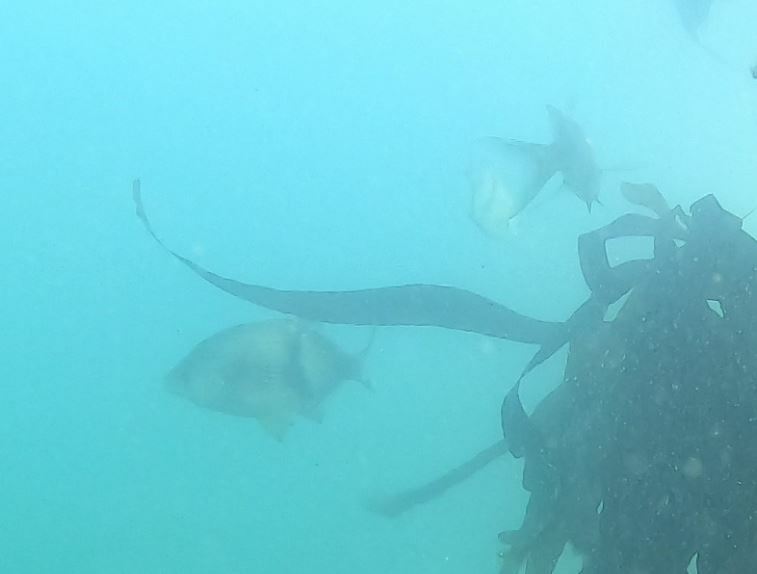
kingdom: Animalia
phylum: Chordata
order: Perciformes
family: Embiotocidae
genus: Rhacochilus
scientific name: Rhacochilus vacca
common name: Pile perch
